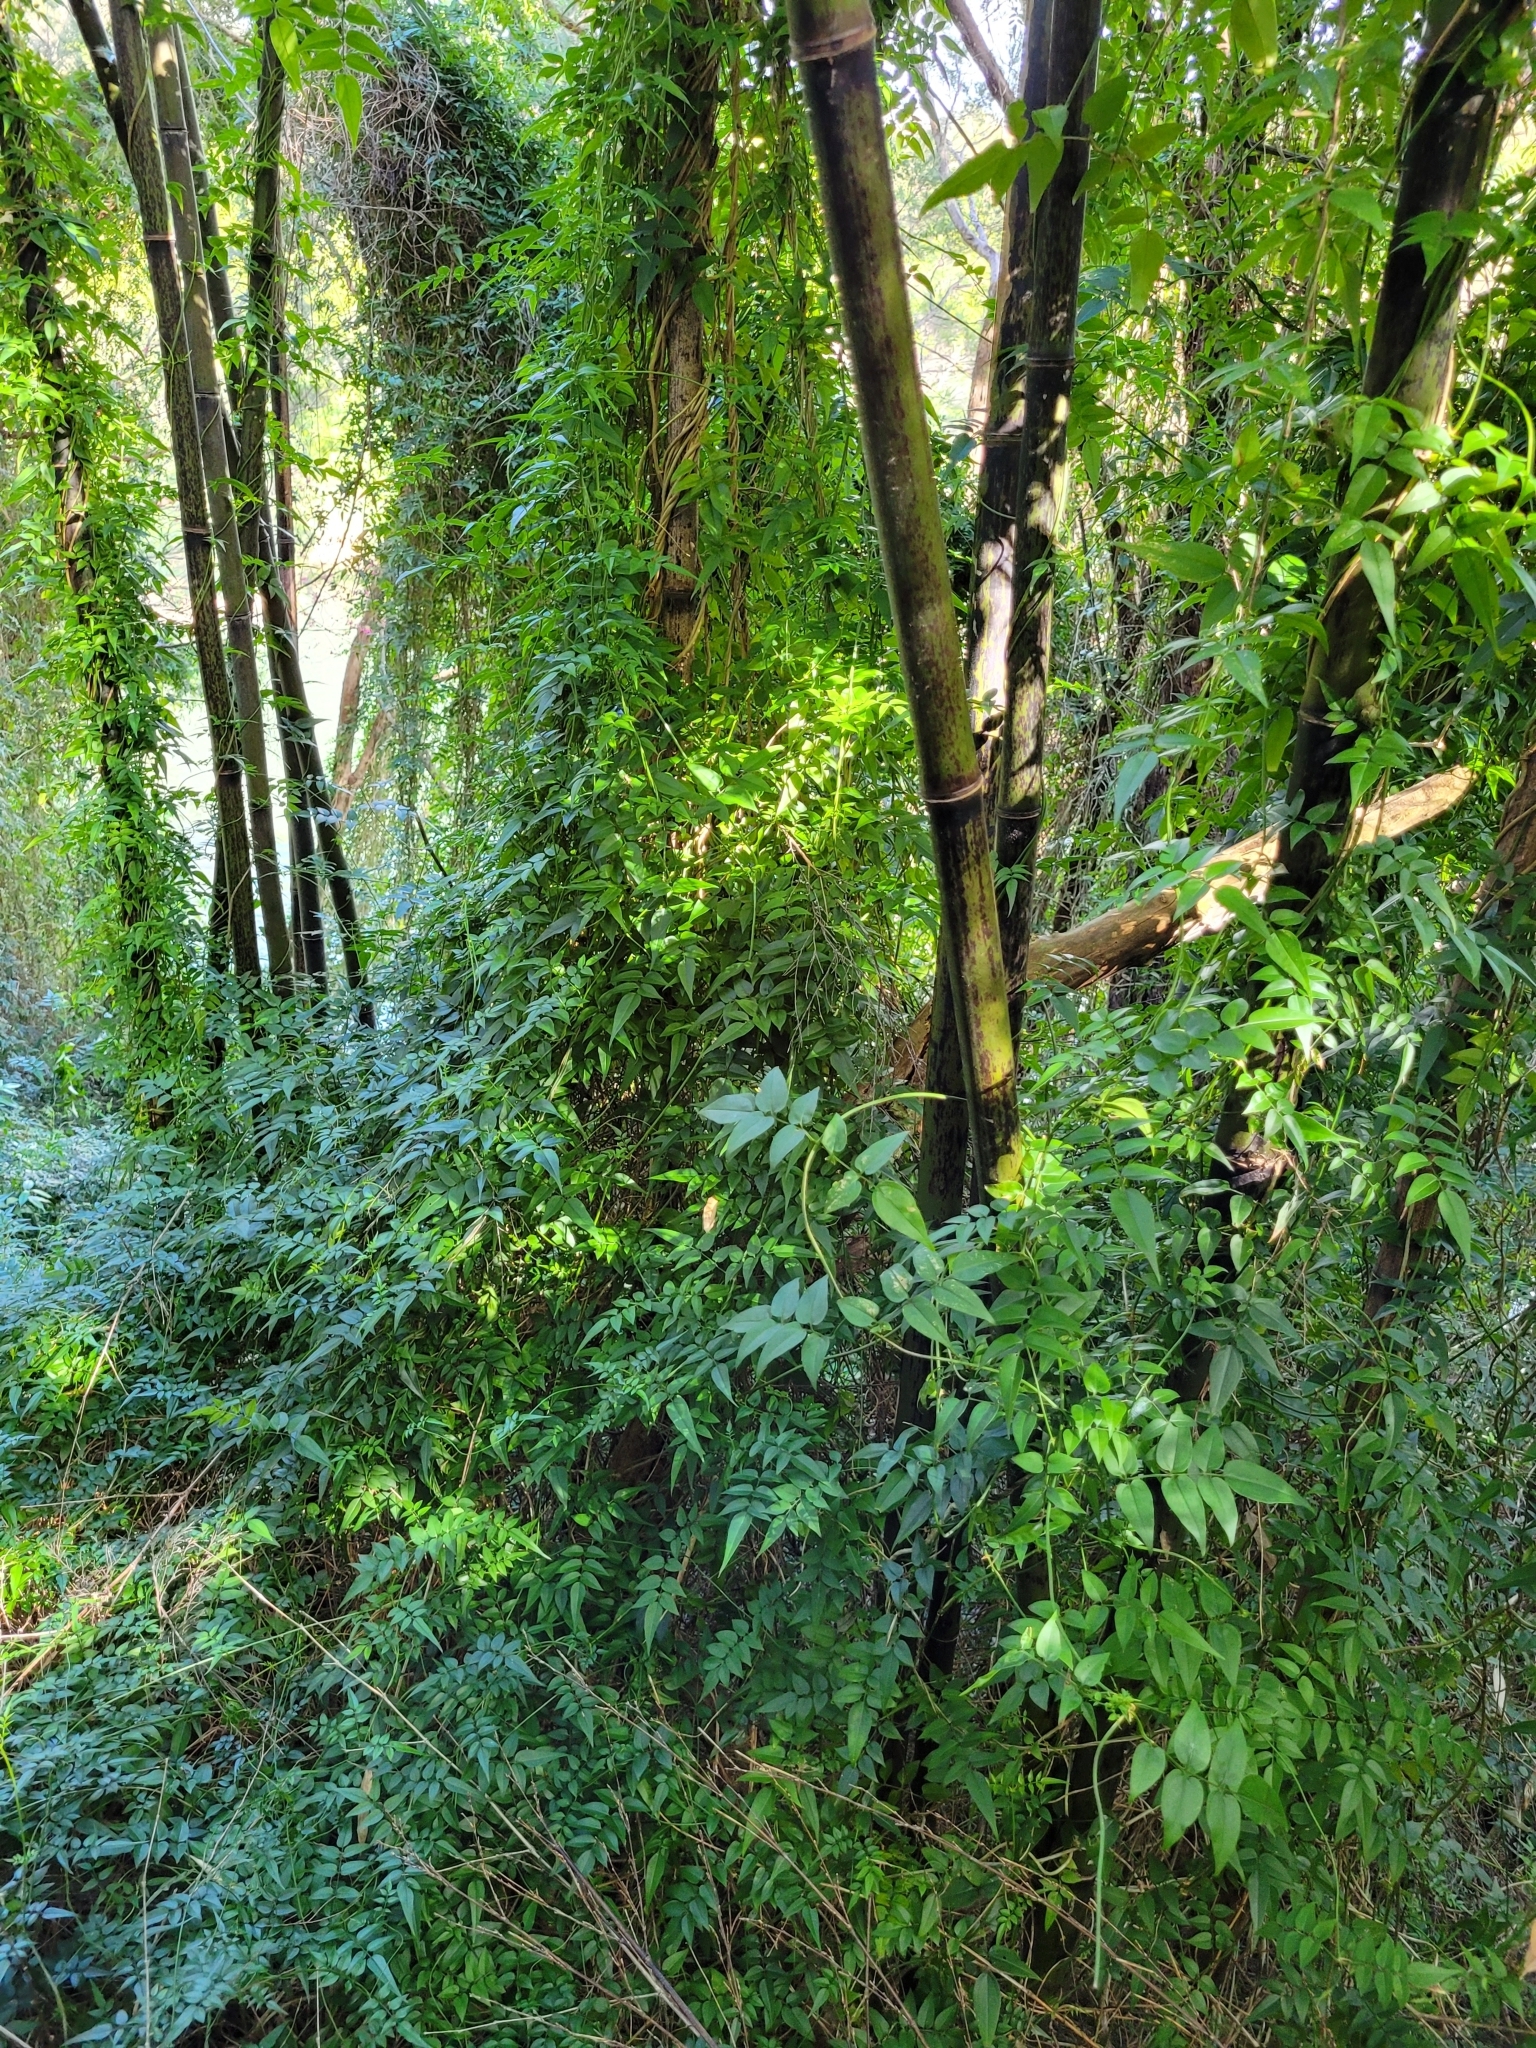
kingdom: Plantae
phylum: Tracheophyta
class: Magnoliopsida
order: Lamiales
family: Oleaceae
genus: Jasminum
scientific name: Jasminum polyanthum
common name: Pink jasmine
